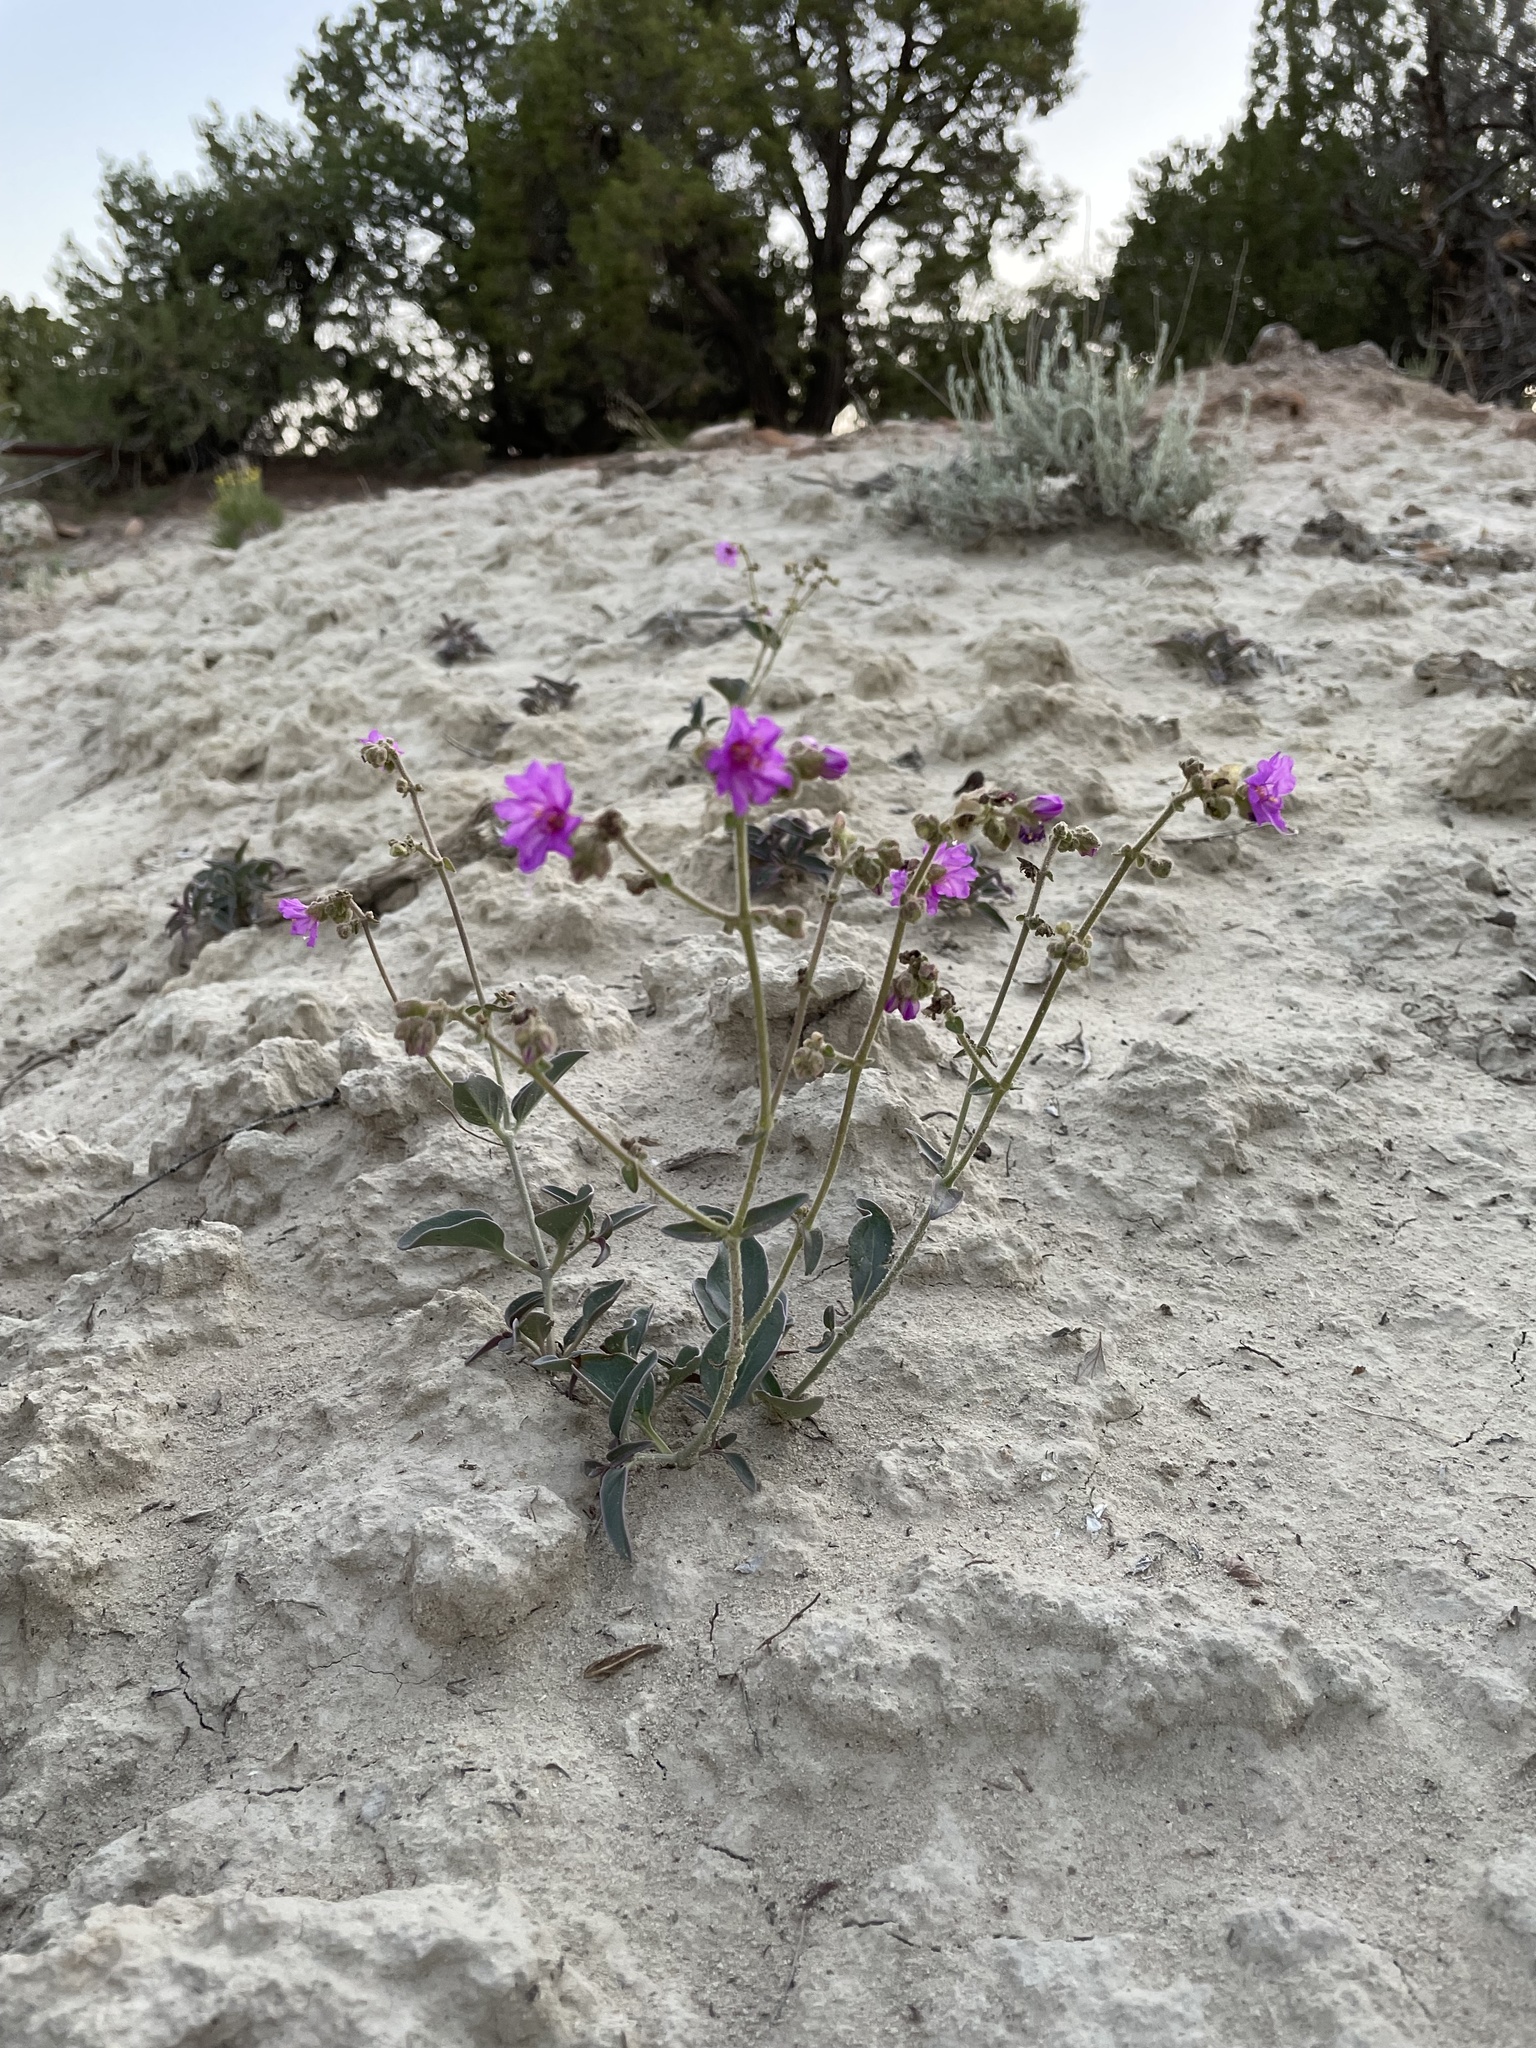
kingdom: Plantae
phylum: Tracheophyta
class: Magnoliopsida
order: Caryophyllales
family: Nyctaginaceae
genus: Mirabilis
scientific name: Mirabilis comata
